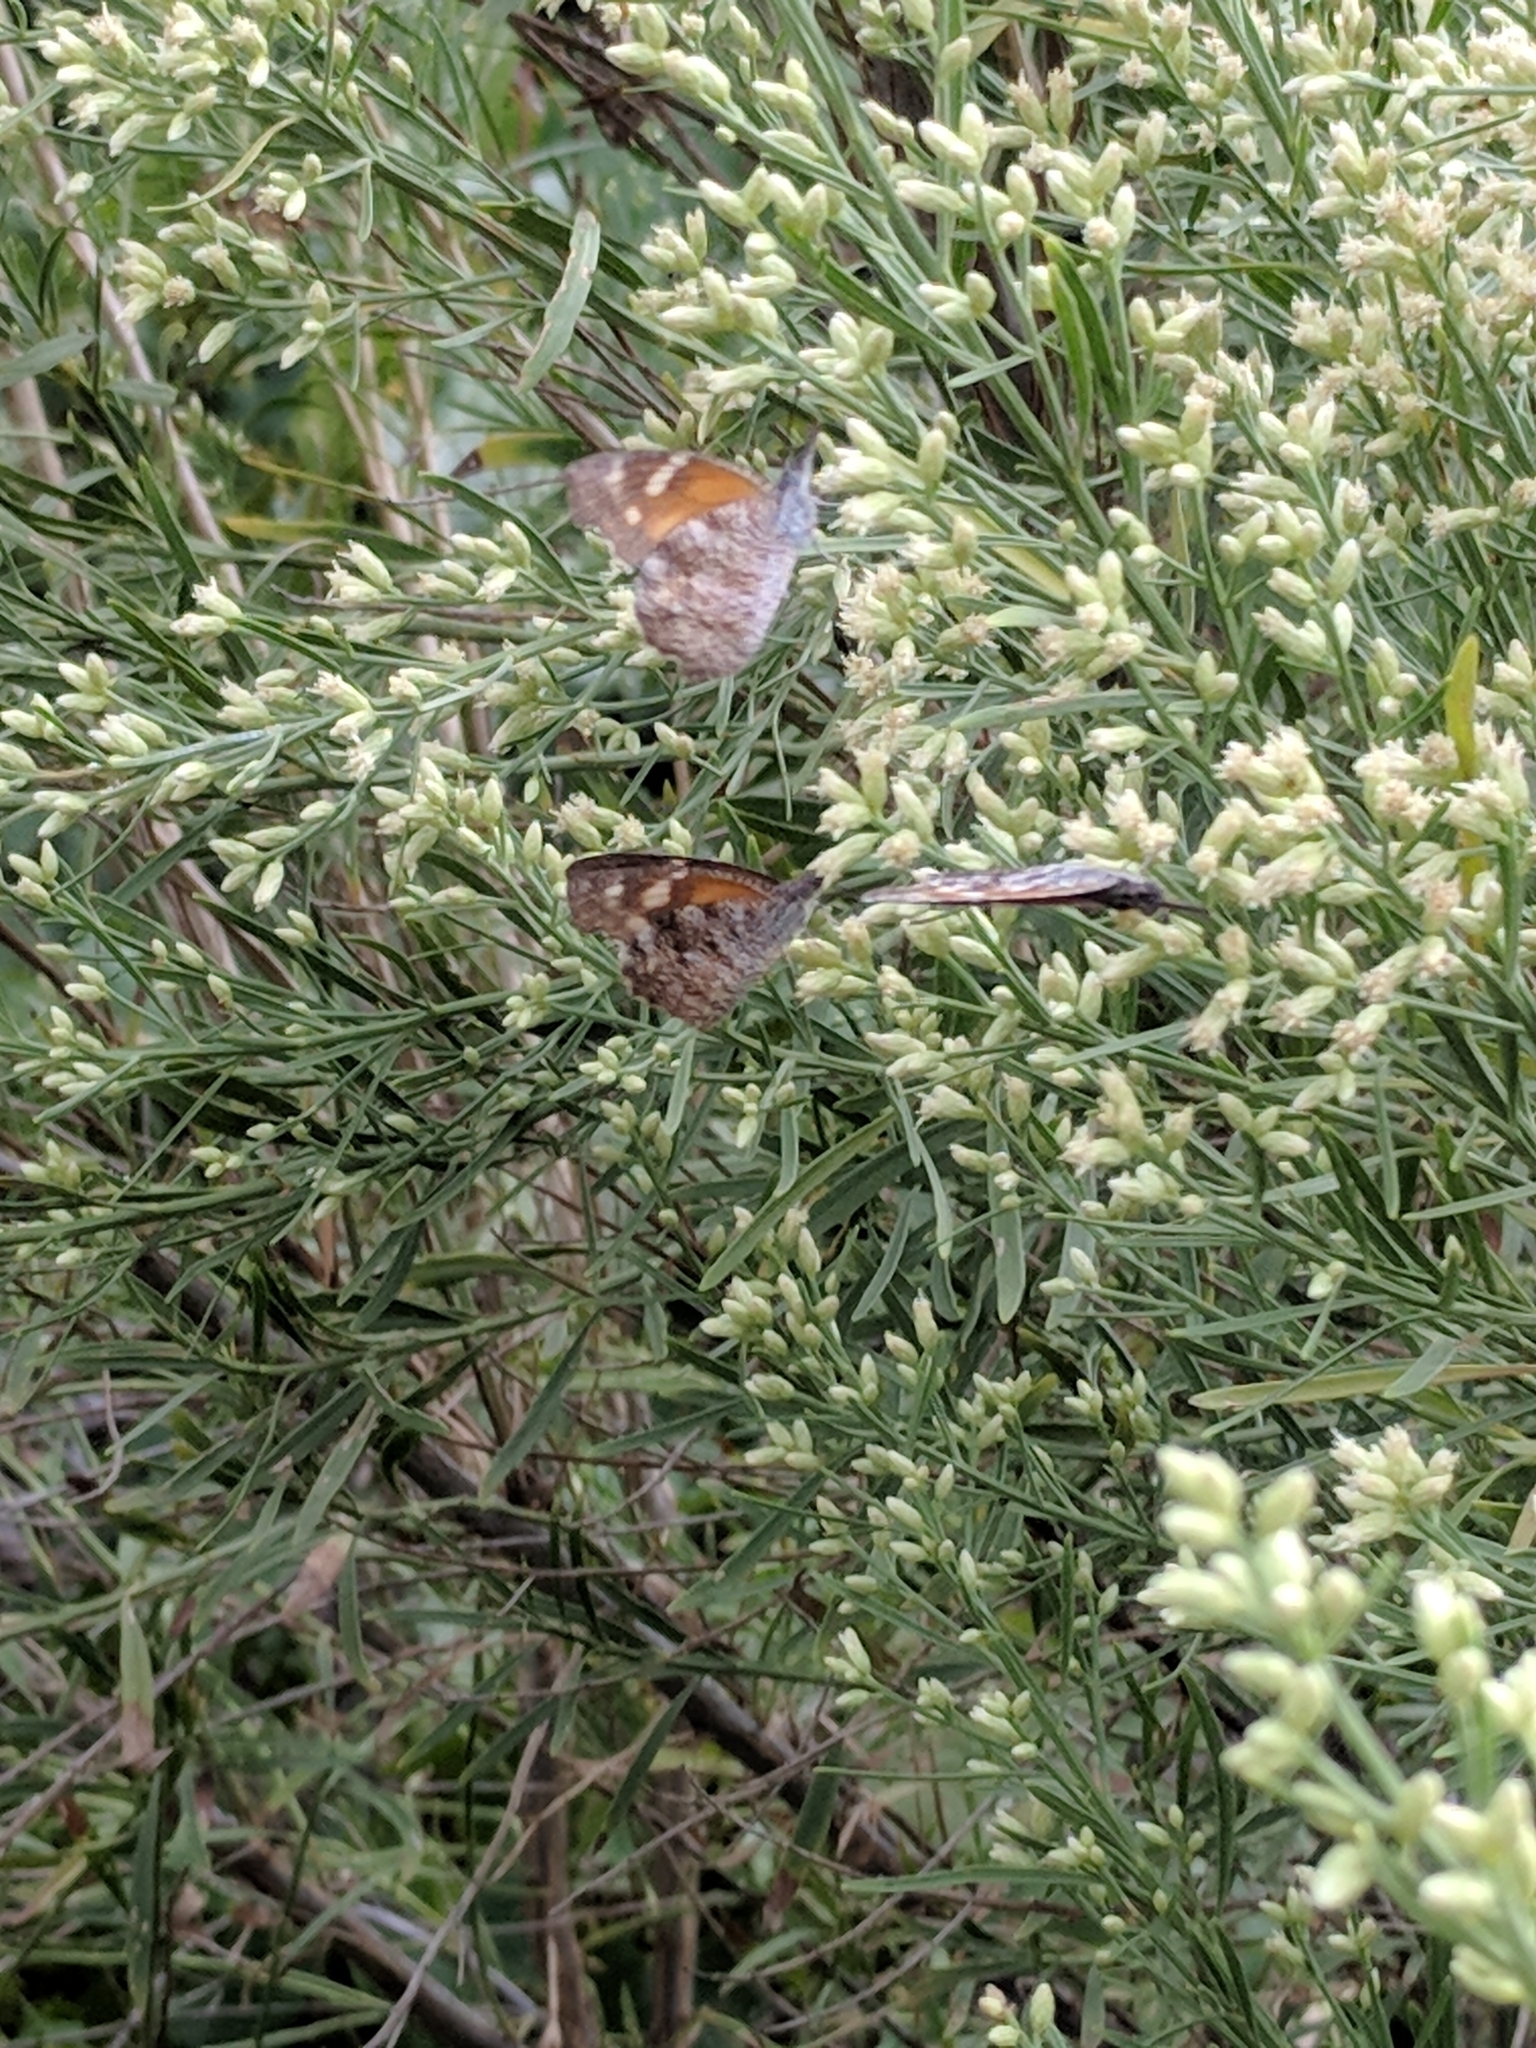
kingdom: Animalia
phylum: Arthropoda
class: Insecta
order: Lepidoptera
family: Nymphalidae
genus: Libytheana
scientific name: Libytheana carinenta
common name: American snout
